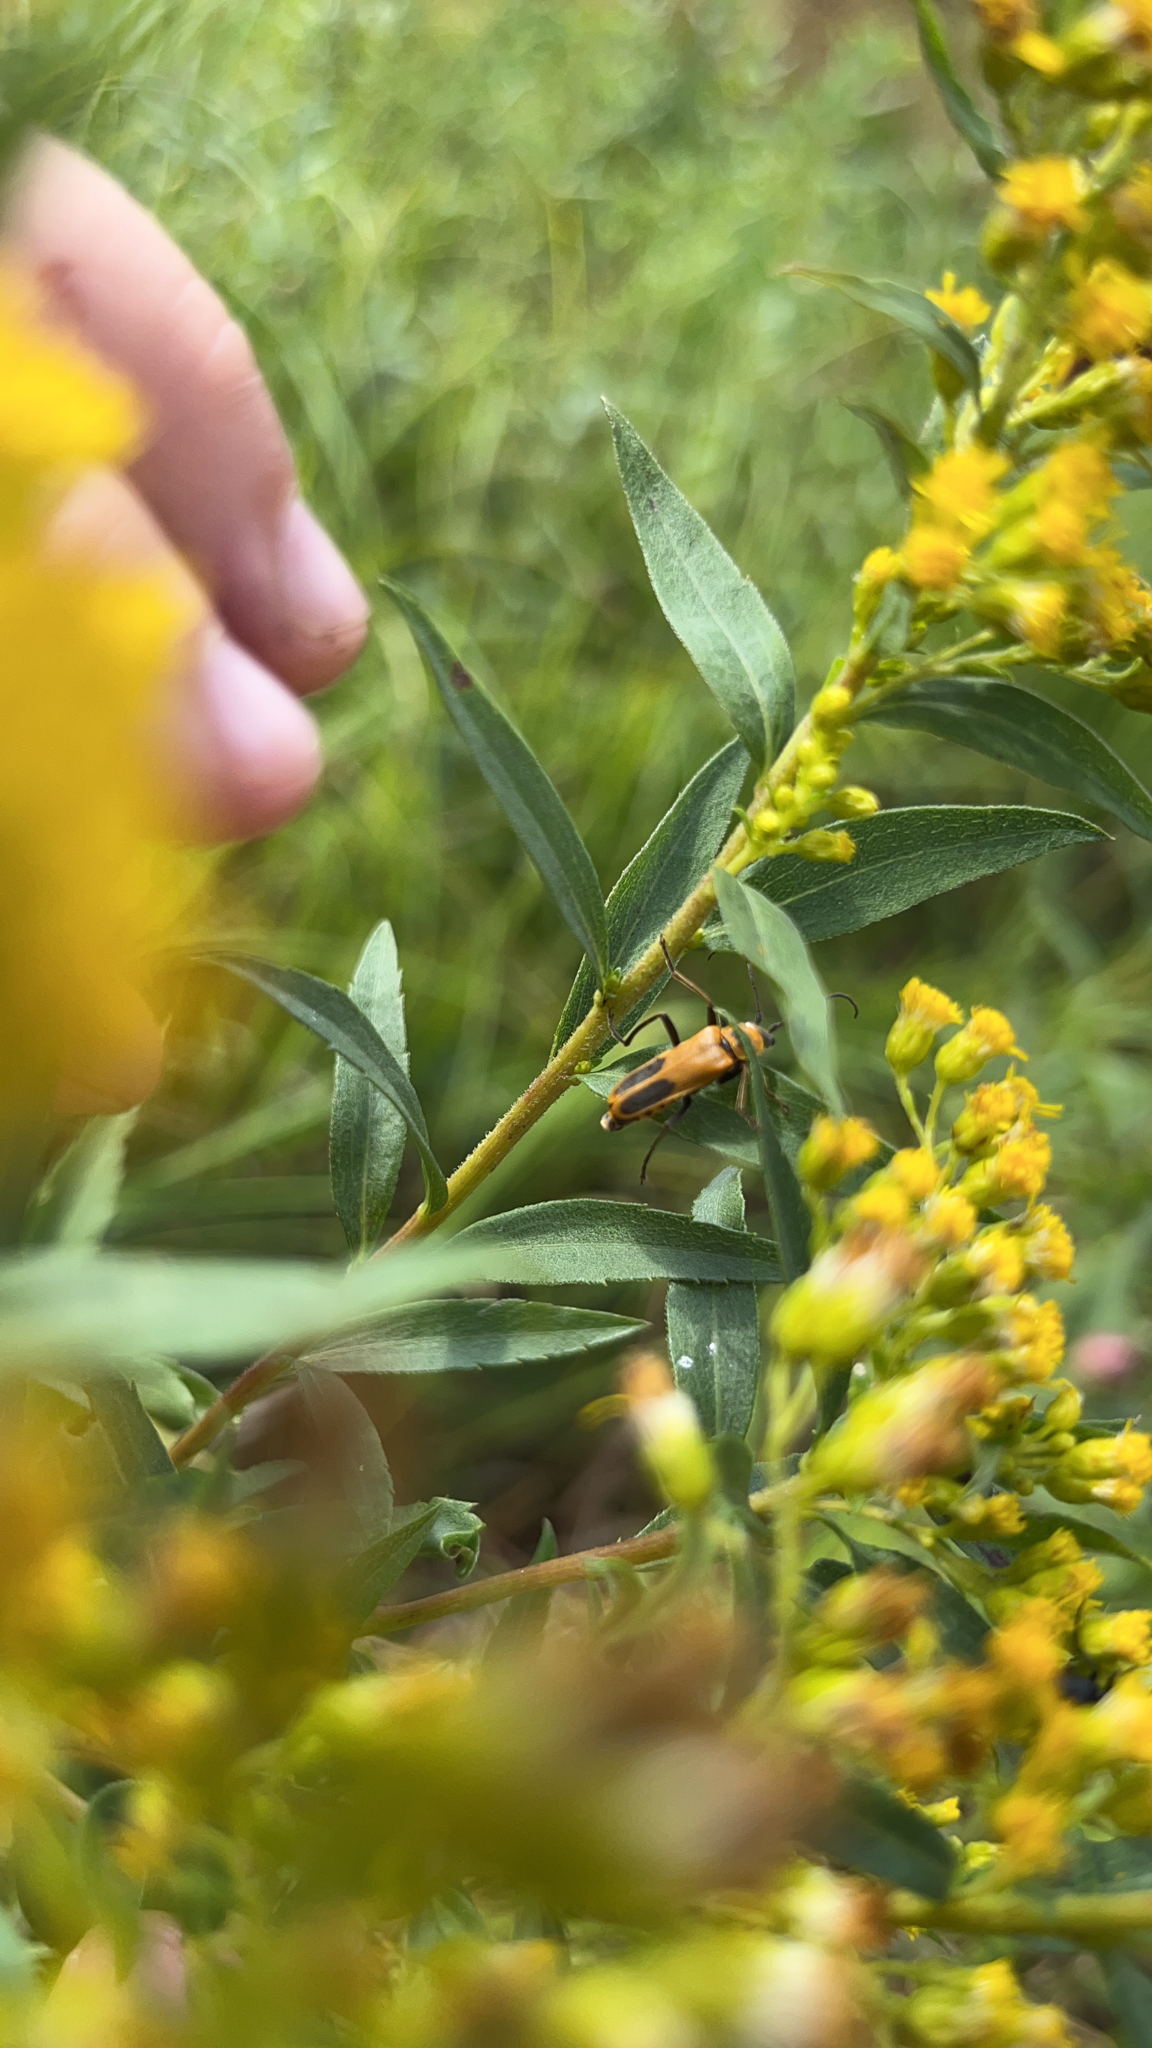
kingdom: Animalia
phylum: Arthropoda
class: Insecta
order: Coleoptera
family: Cantharidae
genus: Chauliognathus
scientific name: Chauliognathus pensylvanicus
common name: Goldenrod soldier beetle
